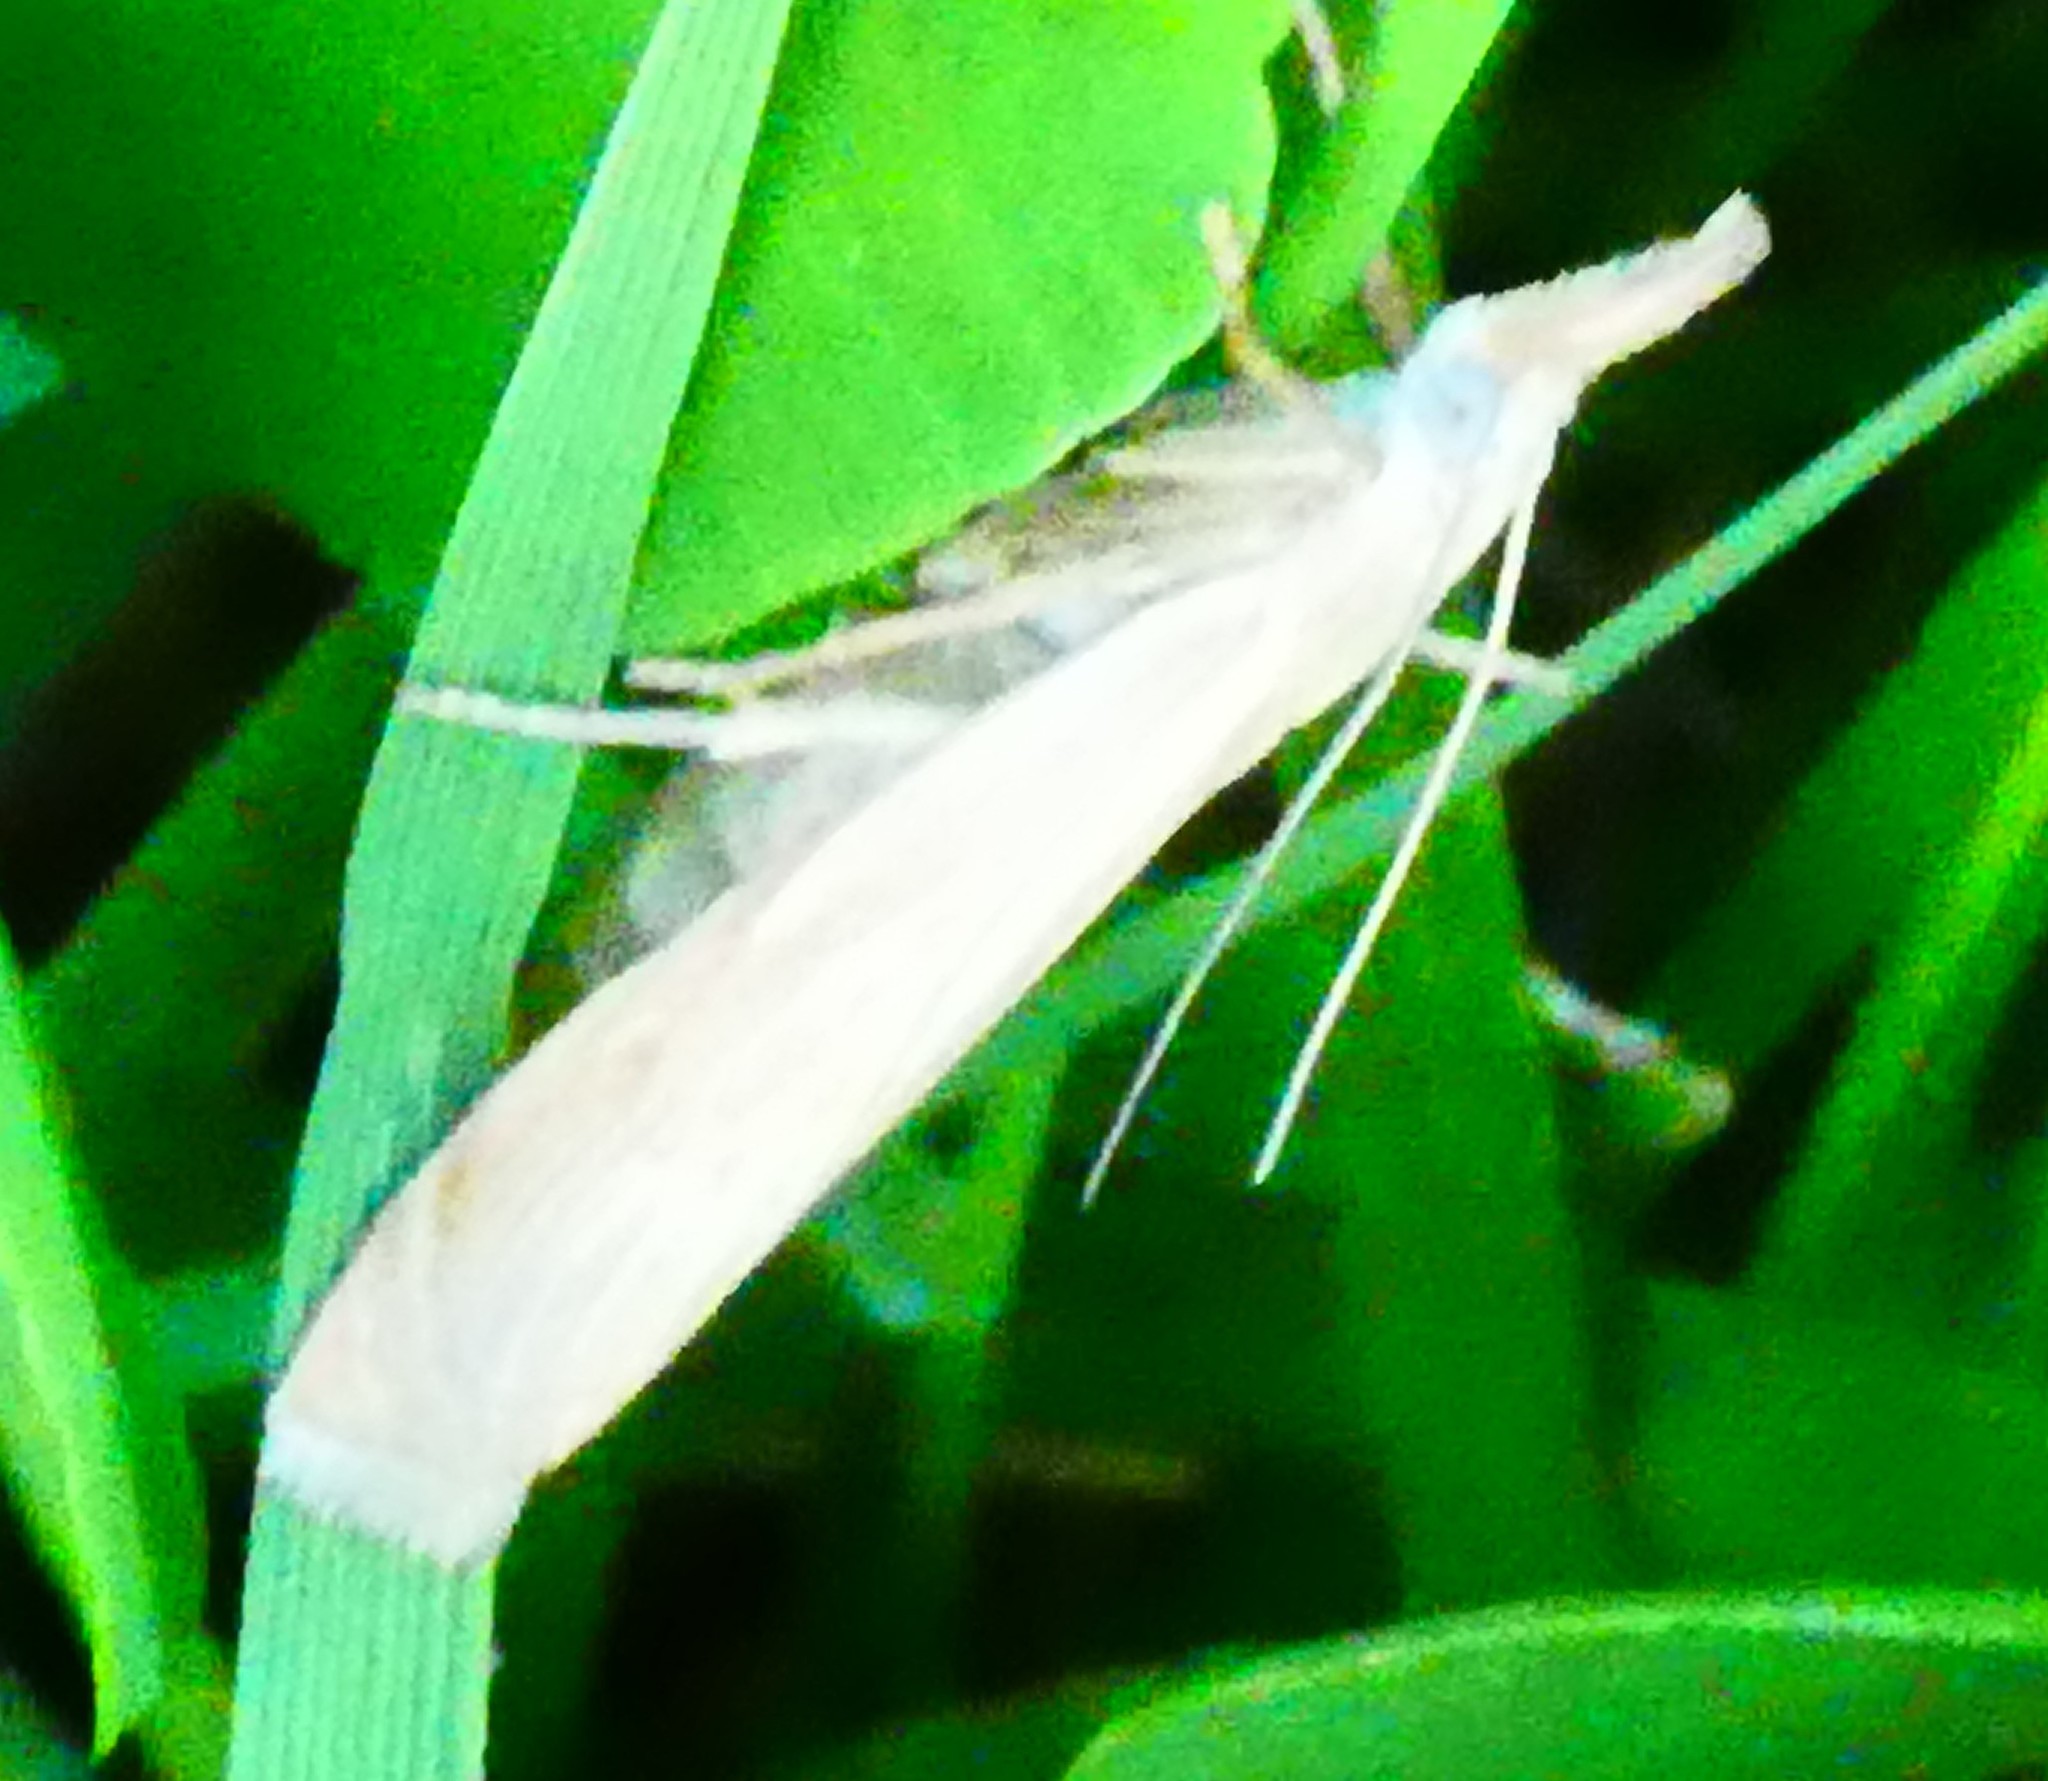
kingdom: Animalia
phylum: Arthropoda
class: Insecta
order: Lepidoptera
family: Crambidae
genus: Chrysoteuchia
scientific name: Chrysoteuchia culmella
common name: Garden grass-veneer
